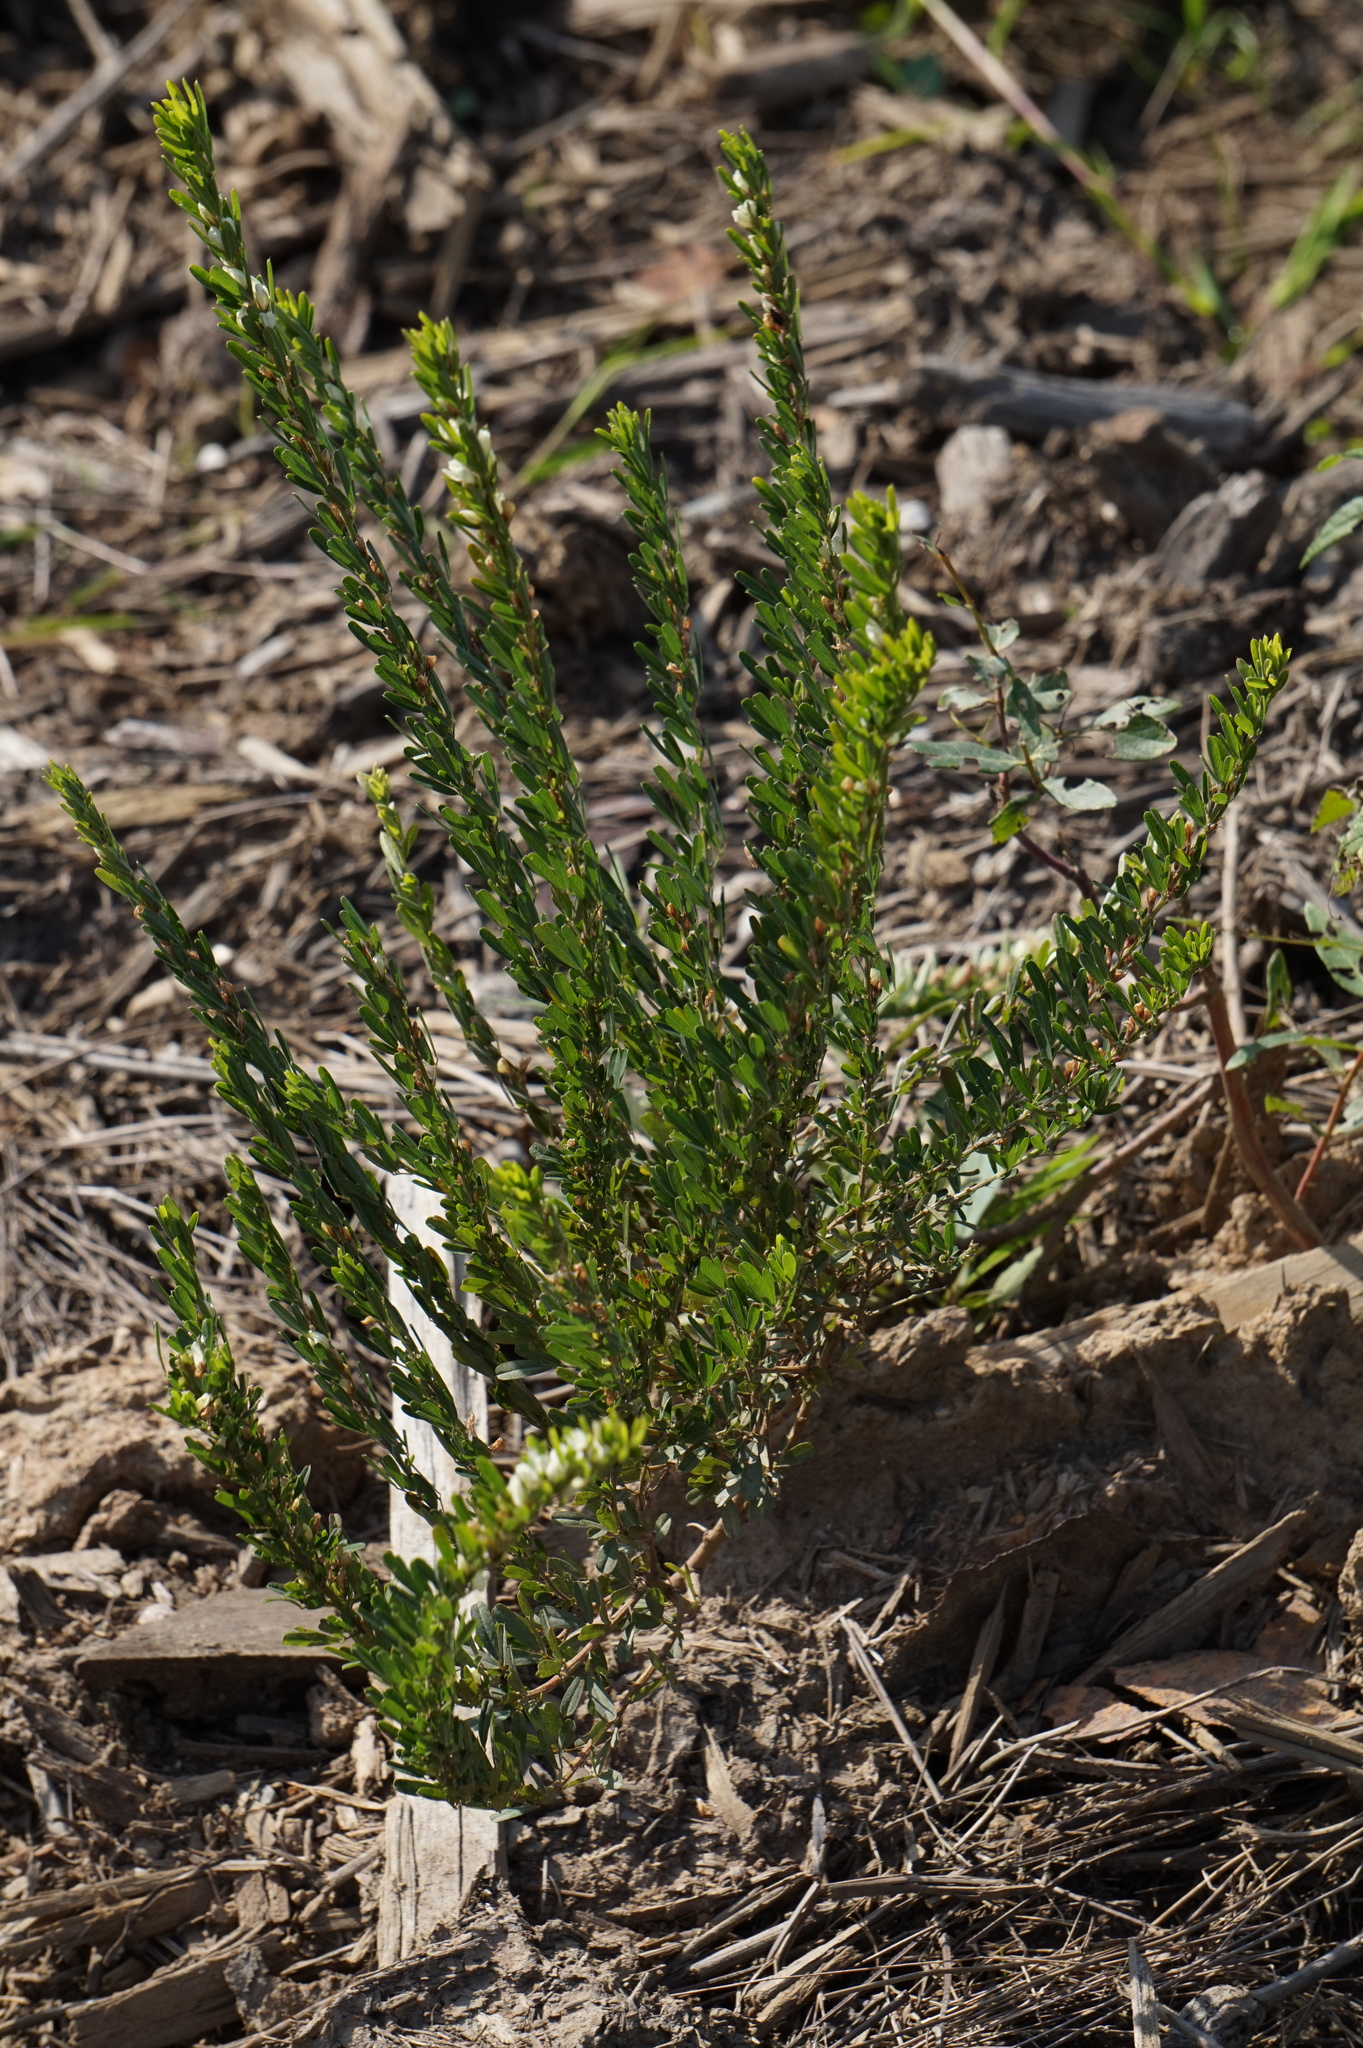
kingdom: Plantae
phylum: Tracheophyta
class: Magnoliopsida
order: Fabales
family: Fabaceae
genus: Lespedeza
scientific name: Lespedeza cuneata
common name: Chinese bush-clover
